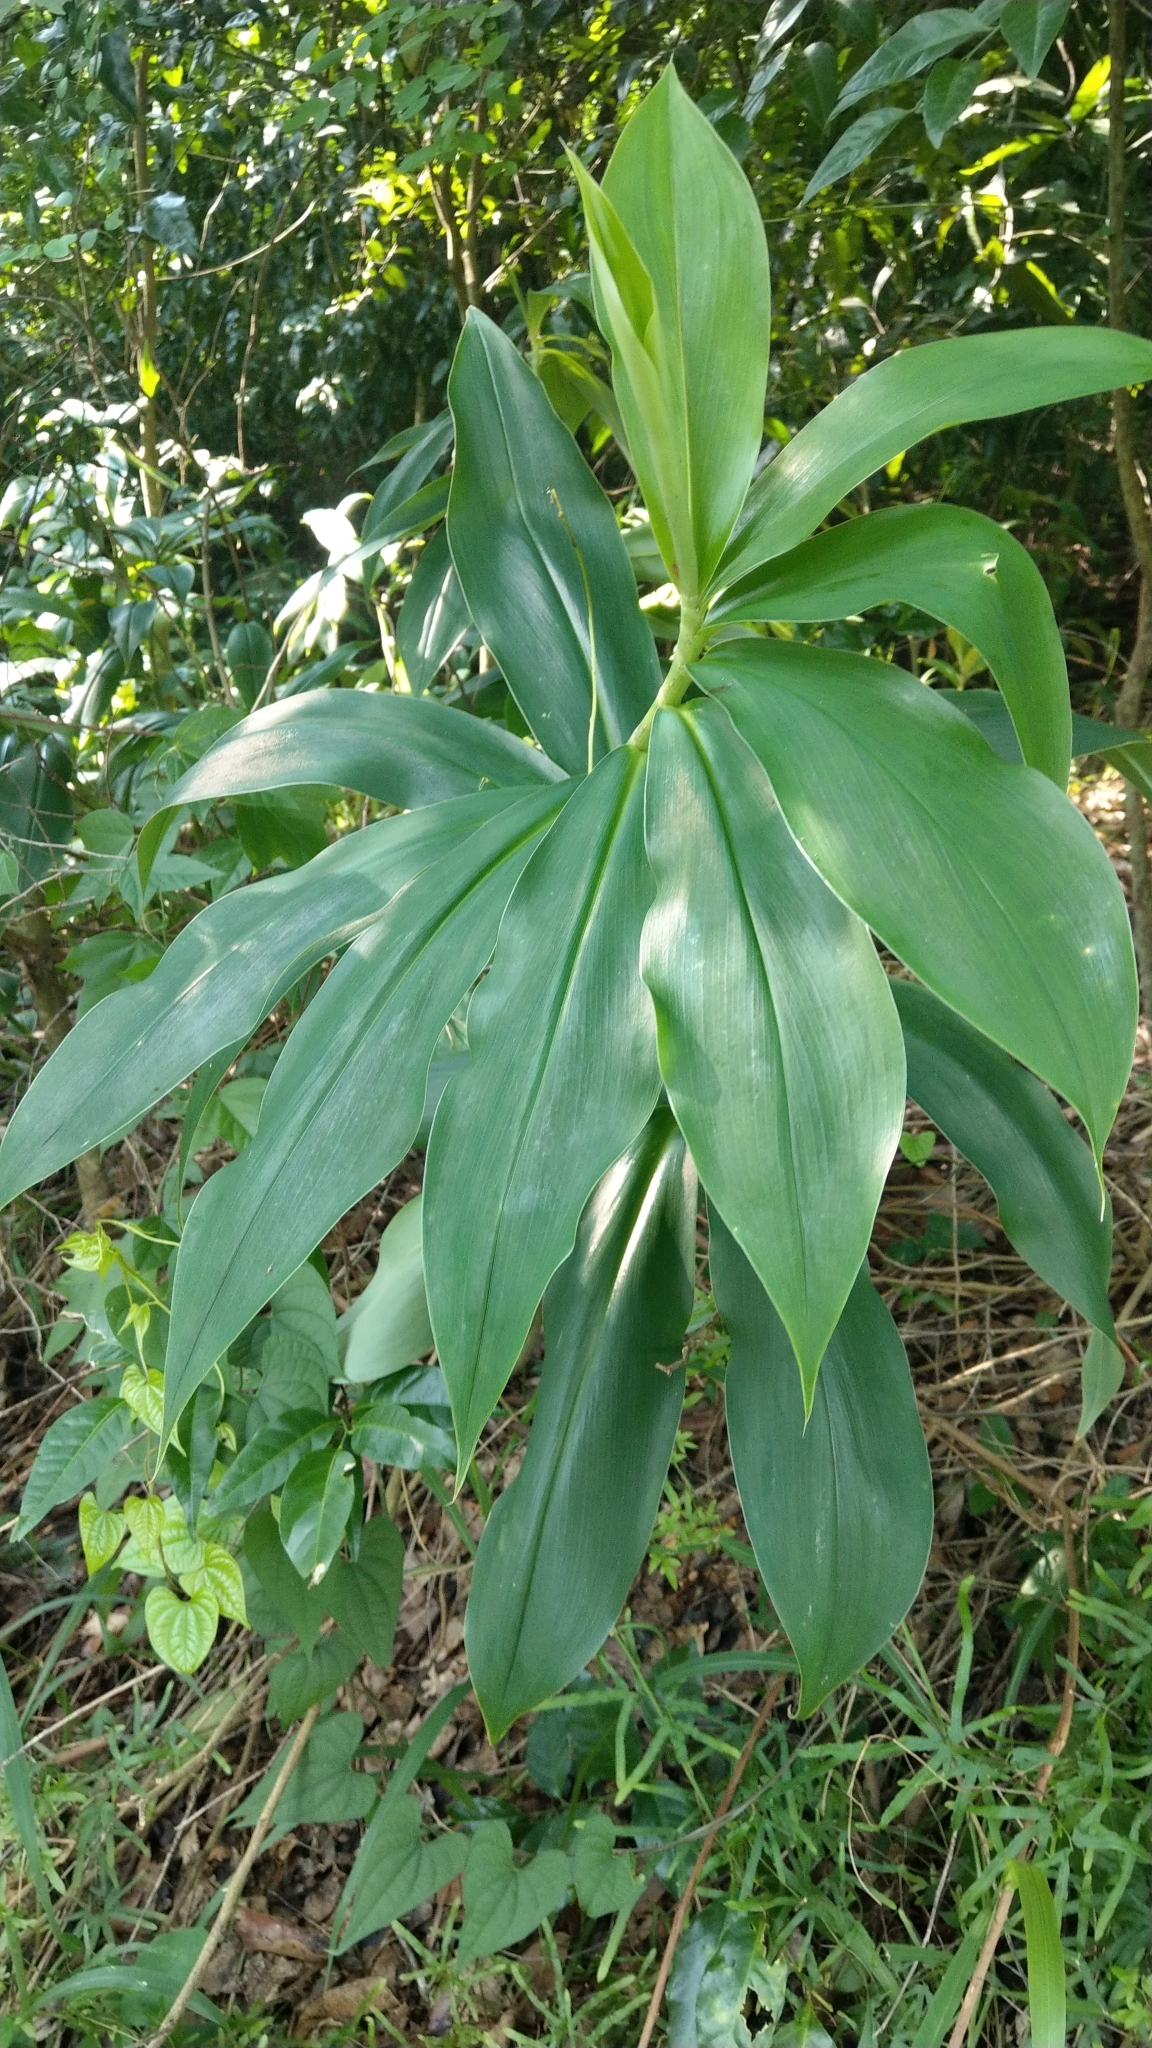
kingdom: Plantae
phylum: Tracheophyta
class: Liliopsida
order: Zingiberales
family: Costaceae
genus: Hellenia
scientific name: Hellenia speciosa
